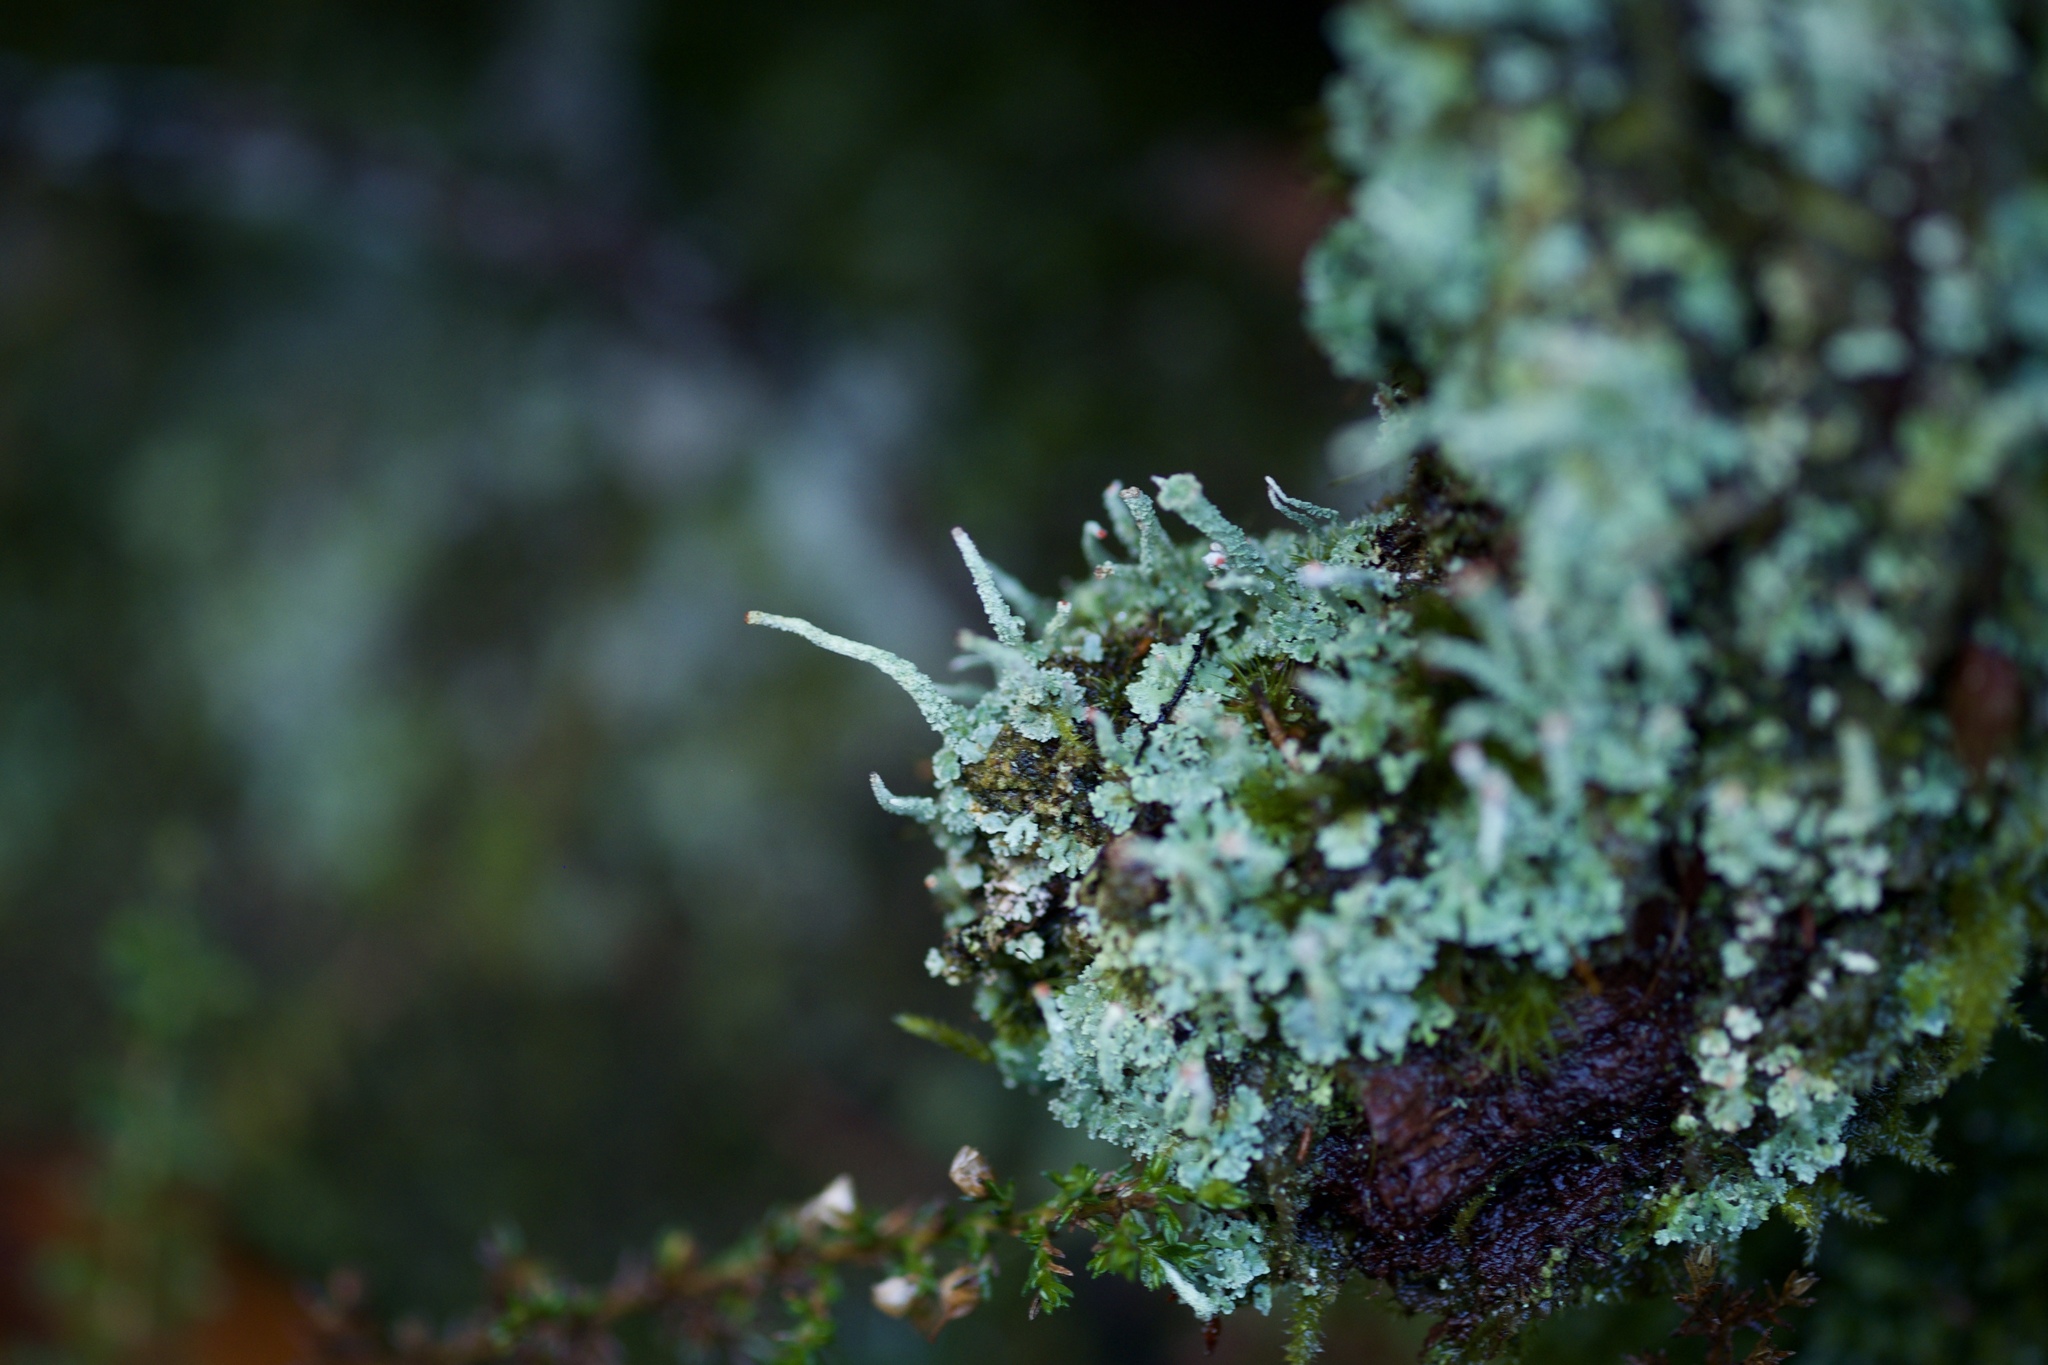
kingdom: Fungi
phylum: Ascomycota
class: Lecanoromycetes
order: Lecanorales
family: Cladoniaceae
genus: Cladonia
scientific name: Cladonia macilenta
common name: Lipstick powderhorn
